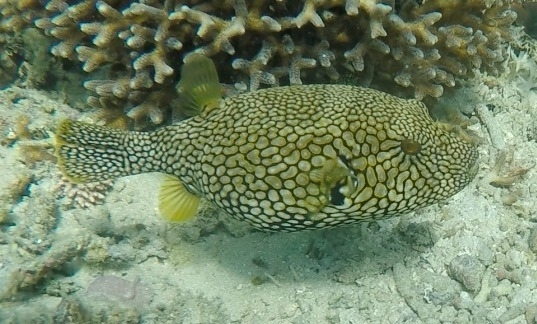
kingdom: Animalia
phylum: Chordata
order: Tetraodontiformes
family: Tetraodontidae
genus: Arothron
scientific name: Arothron mappa
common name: Map blaasop
